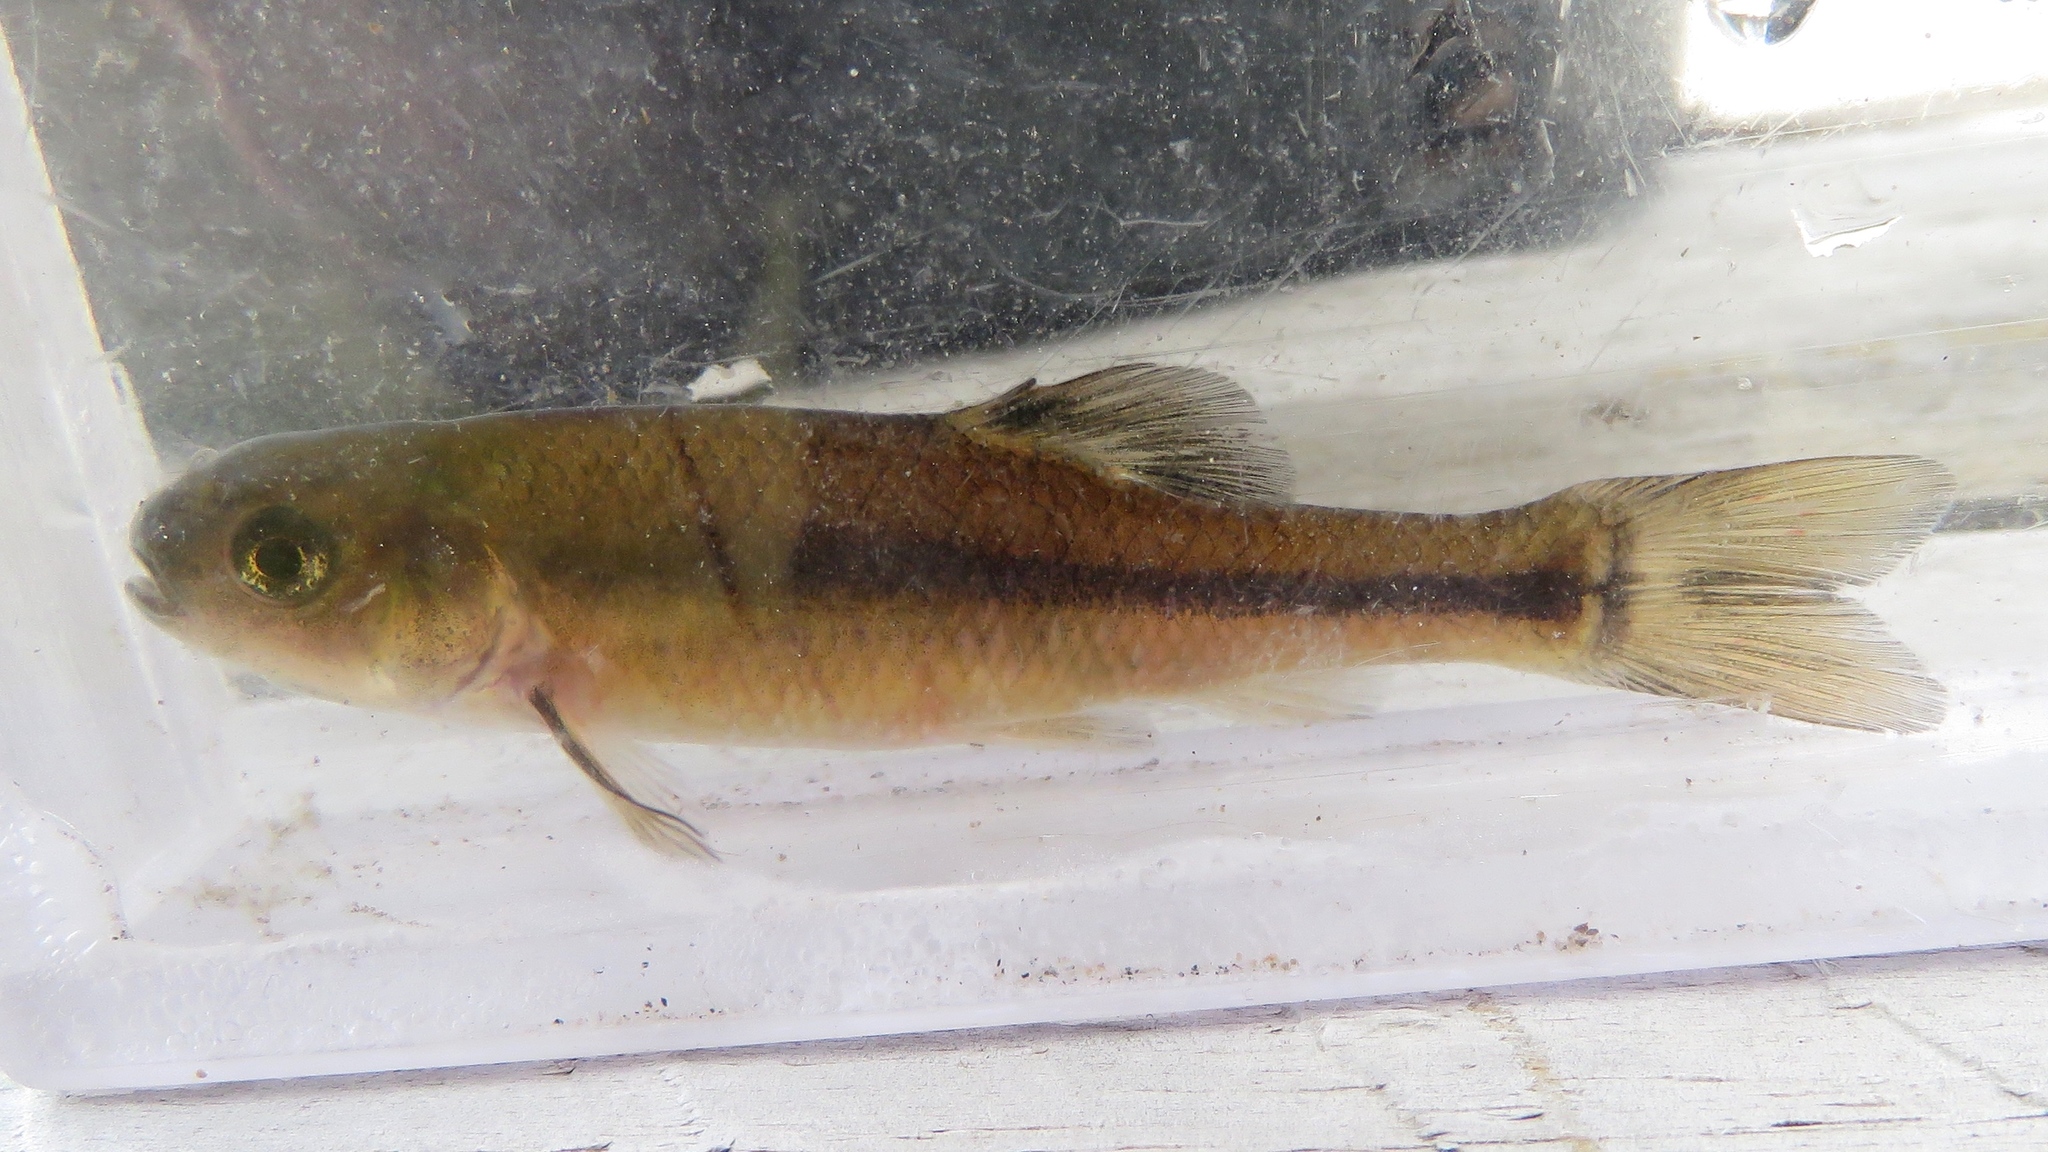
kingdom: Animalia
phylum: Chordata
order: Cypriniformes
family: Cyprinidae
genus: Pimephales
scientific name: Pimephales promelas
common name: Fathead minnow
